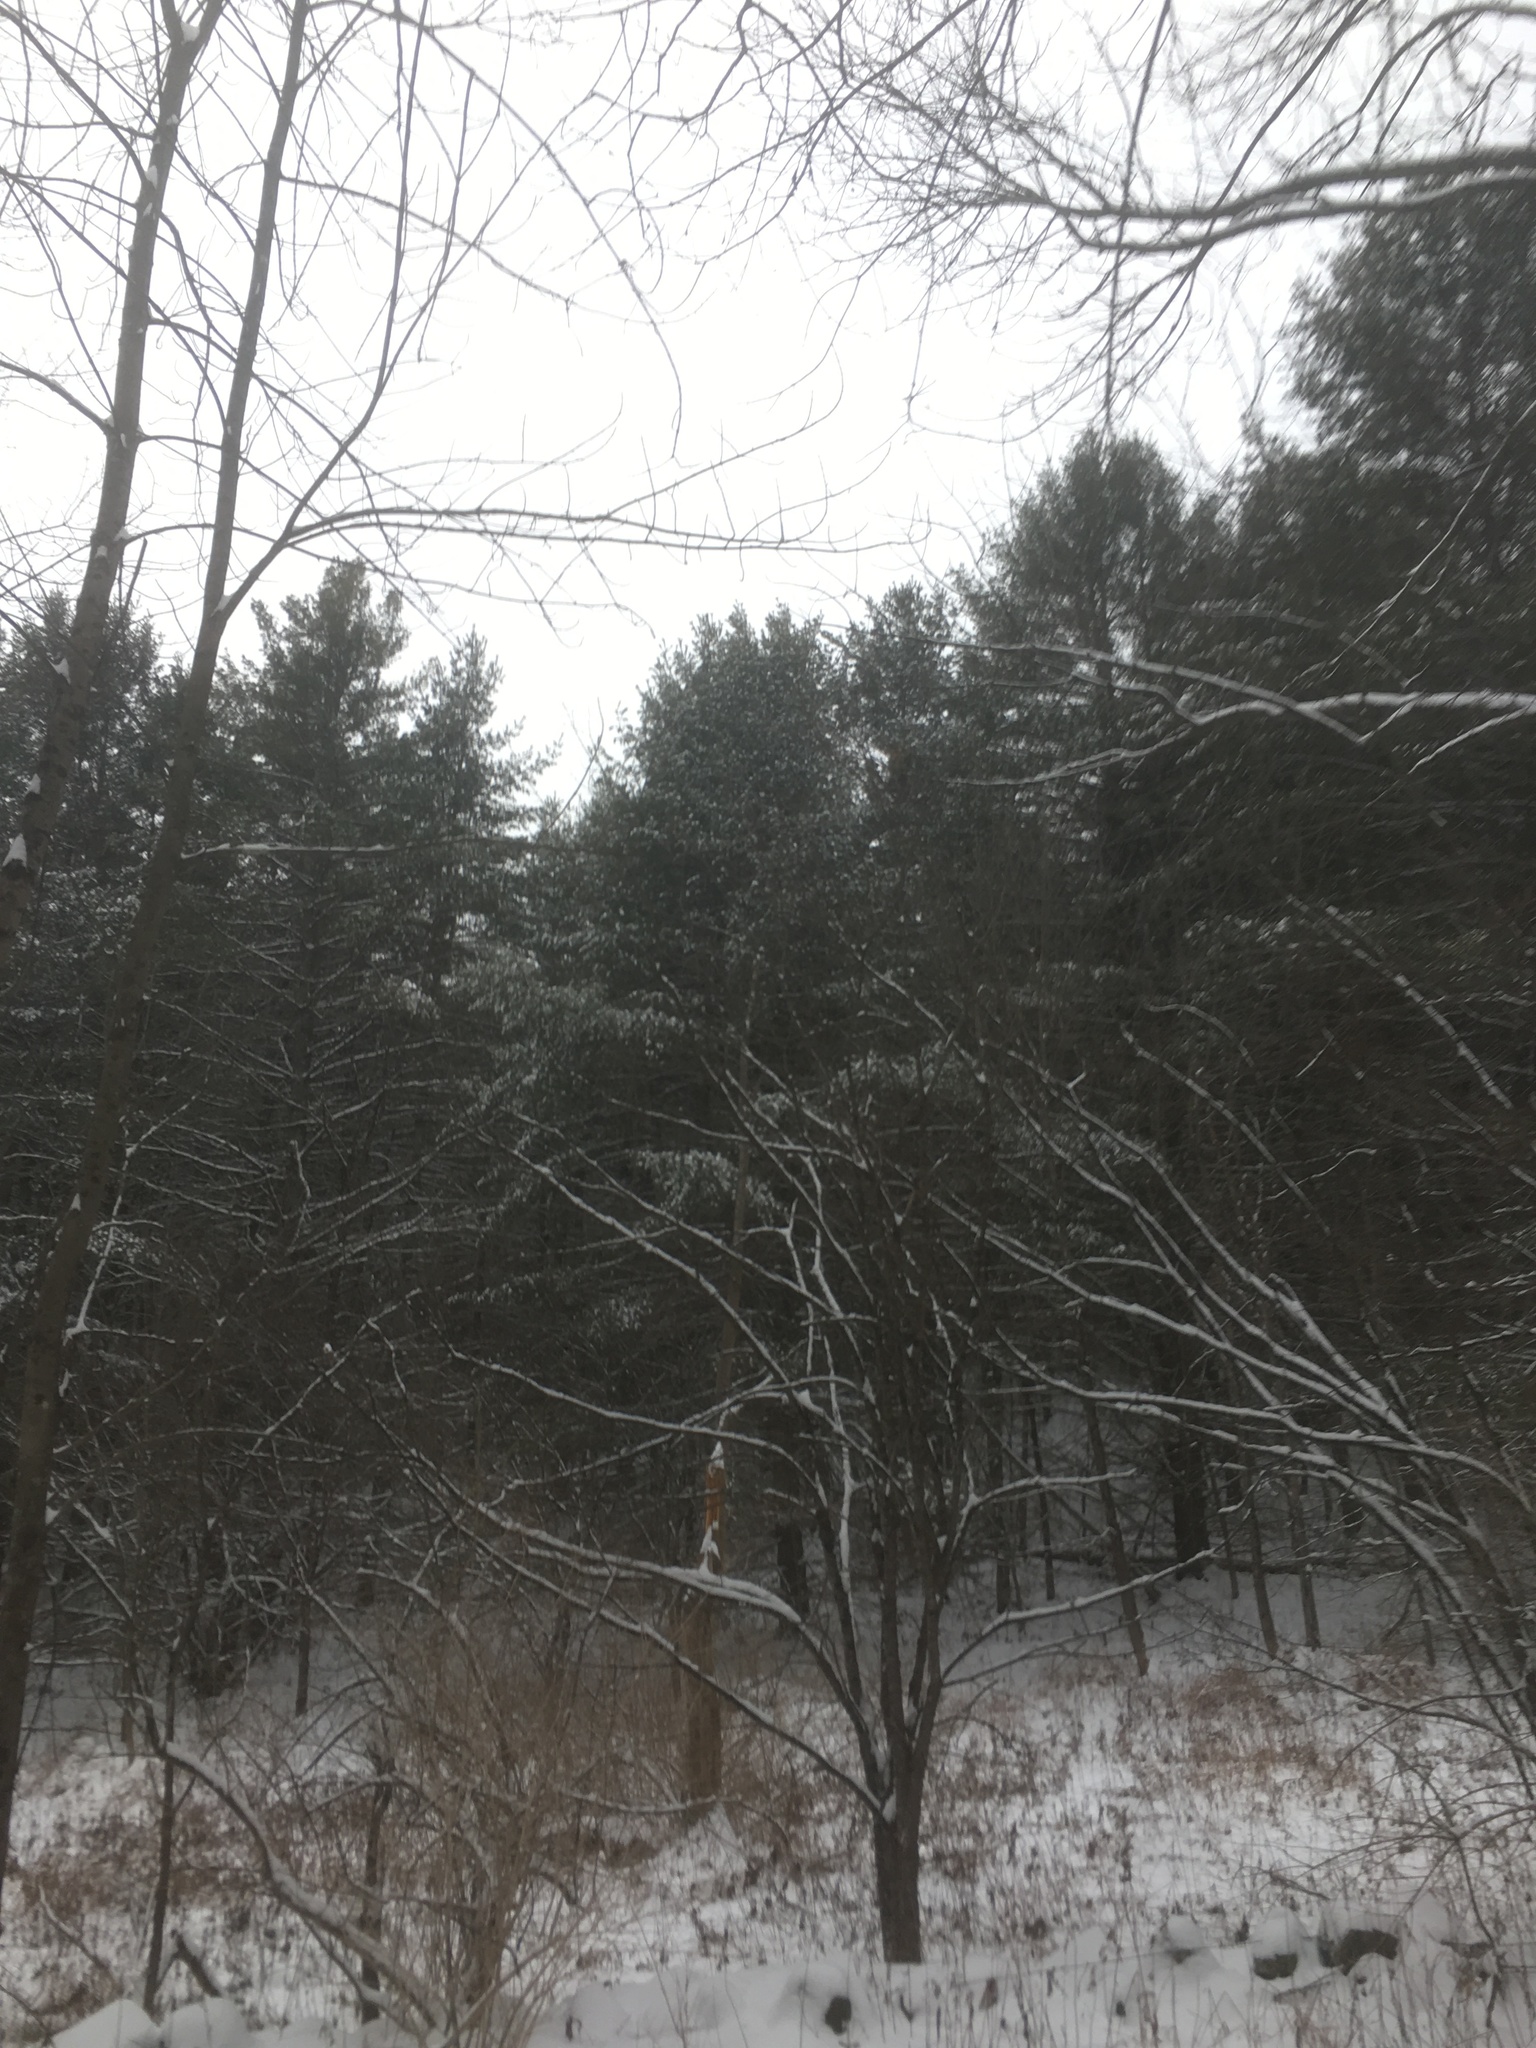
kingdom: Plantae
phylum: Tracheophyta
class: Pinopsida
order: Pinales
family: Pinaceae
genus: Pinus
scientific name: Pinus strobus
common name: Weymouth pine
